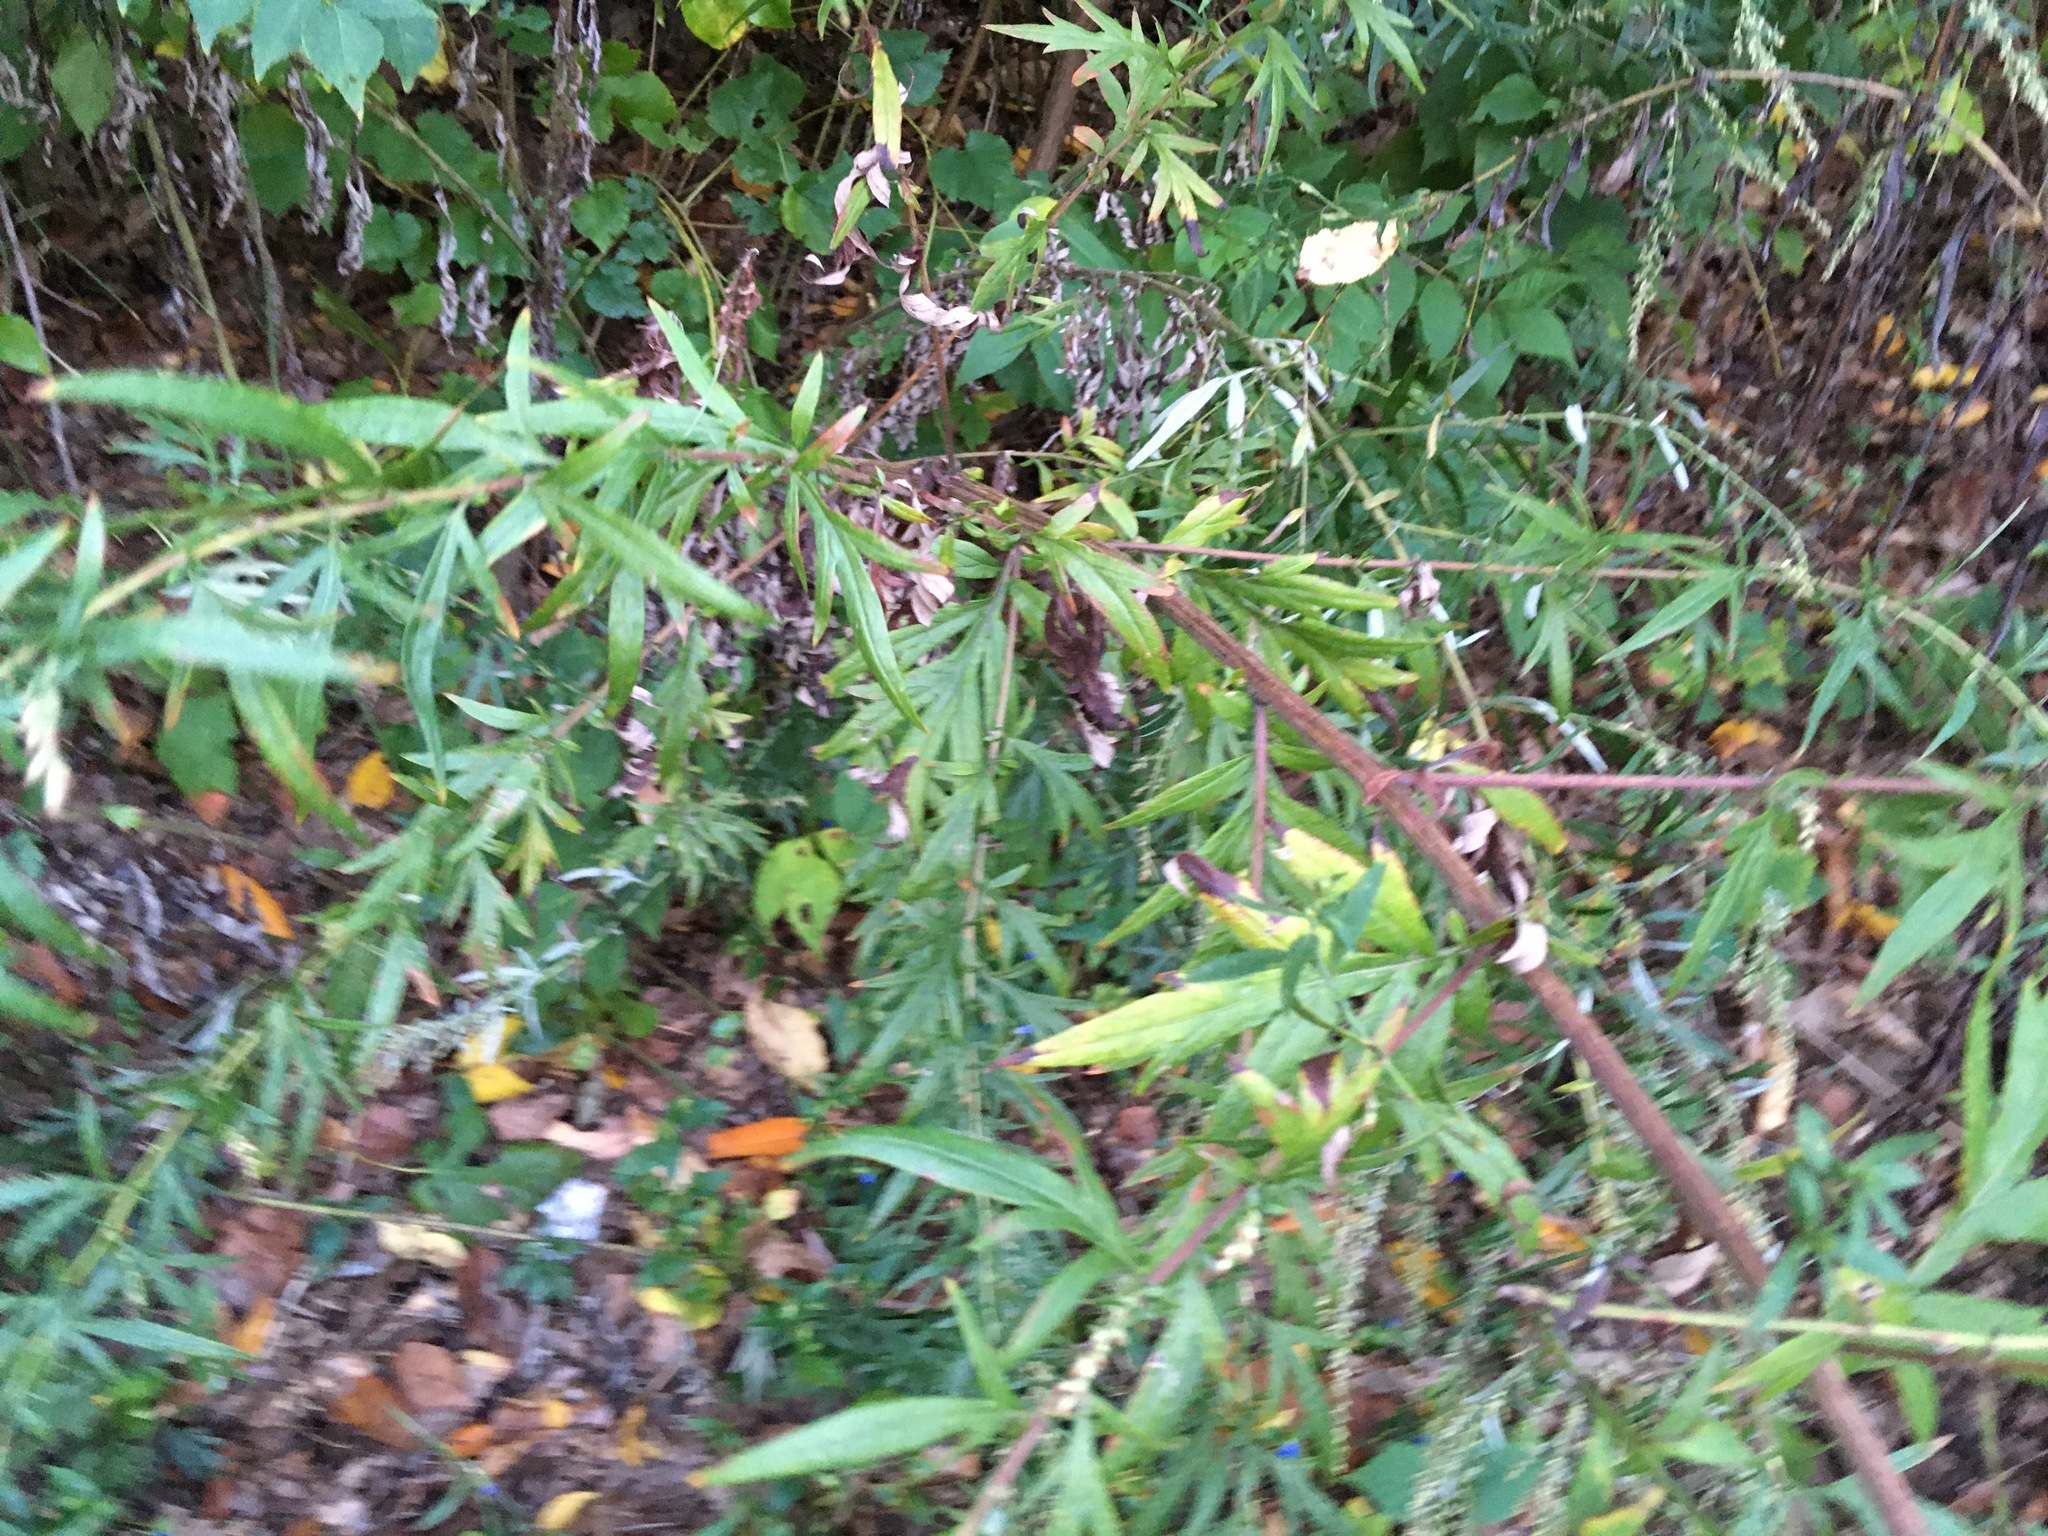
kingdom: Plantae
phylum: Tracheophyta
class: Magnoliopsida
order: Asterales
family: Asteraceae
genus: Artemisia
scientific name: Artemisia vulgaris
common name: Mugwort
